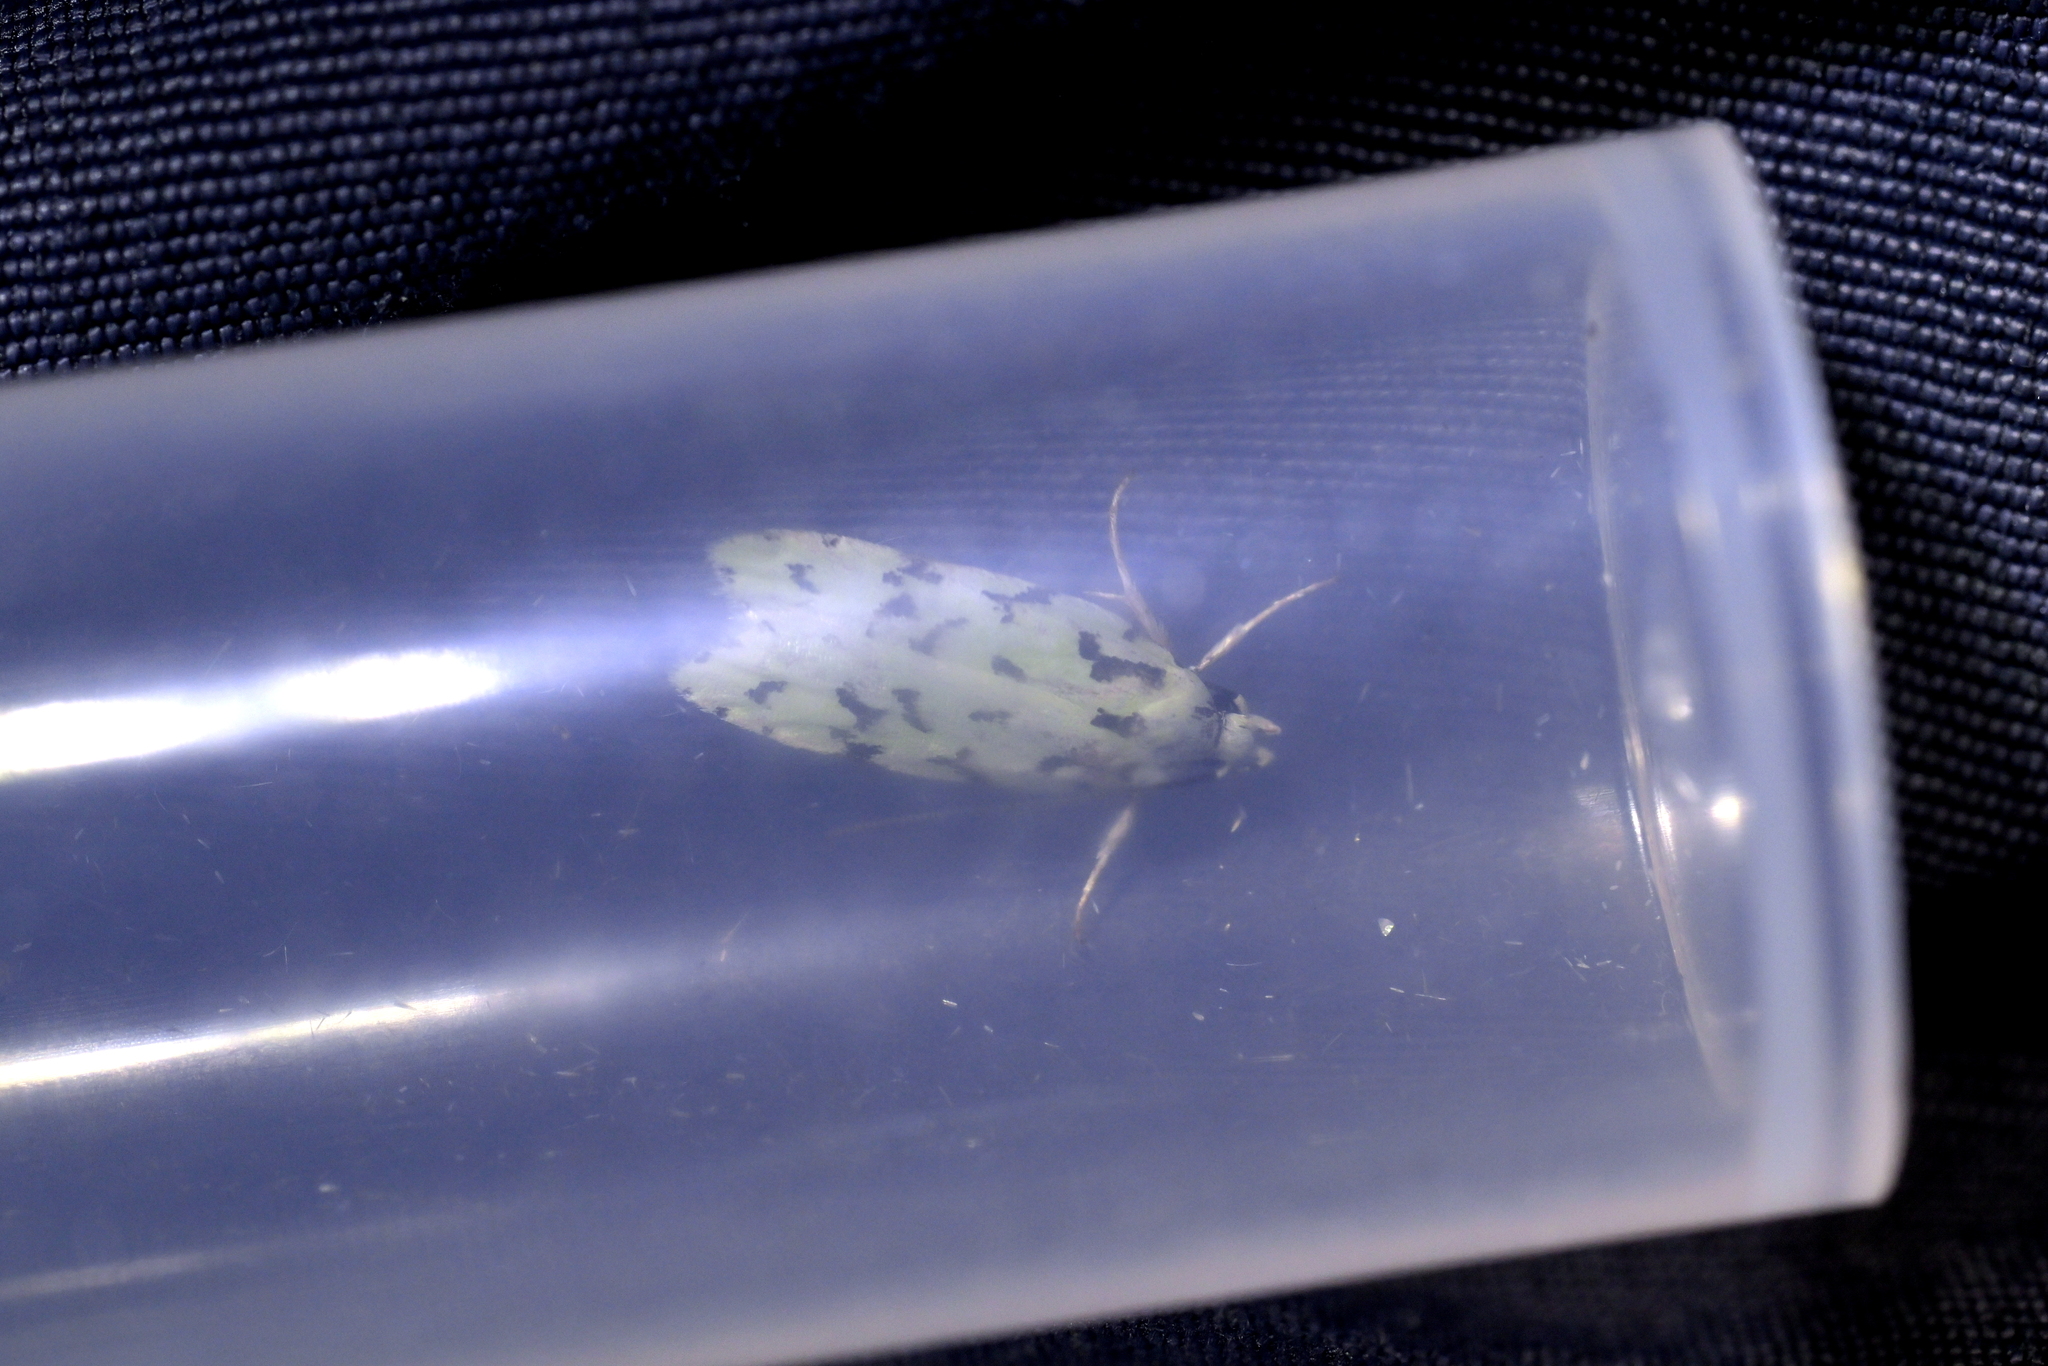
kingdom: Animalia
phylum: Arthropoda
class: Insecta
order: Lepidoptera
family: Oecophoridae
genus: Izatha
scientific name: Izatha peroneanella
